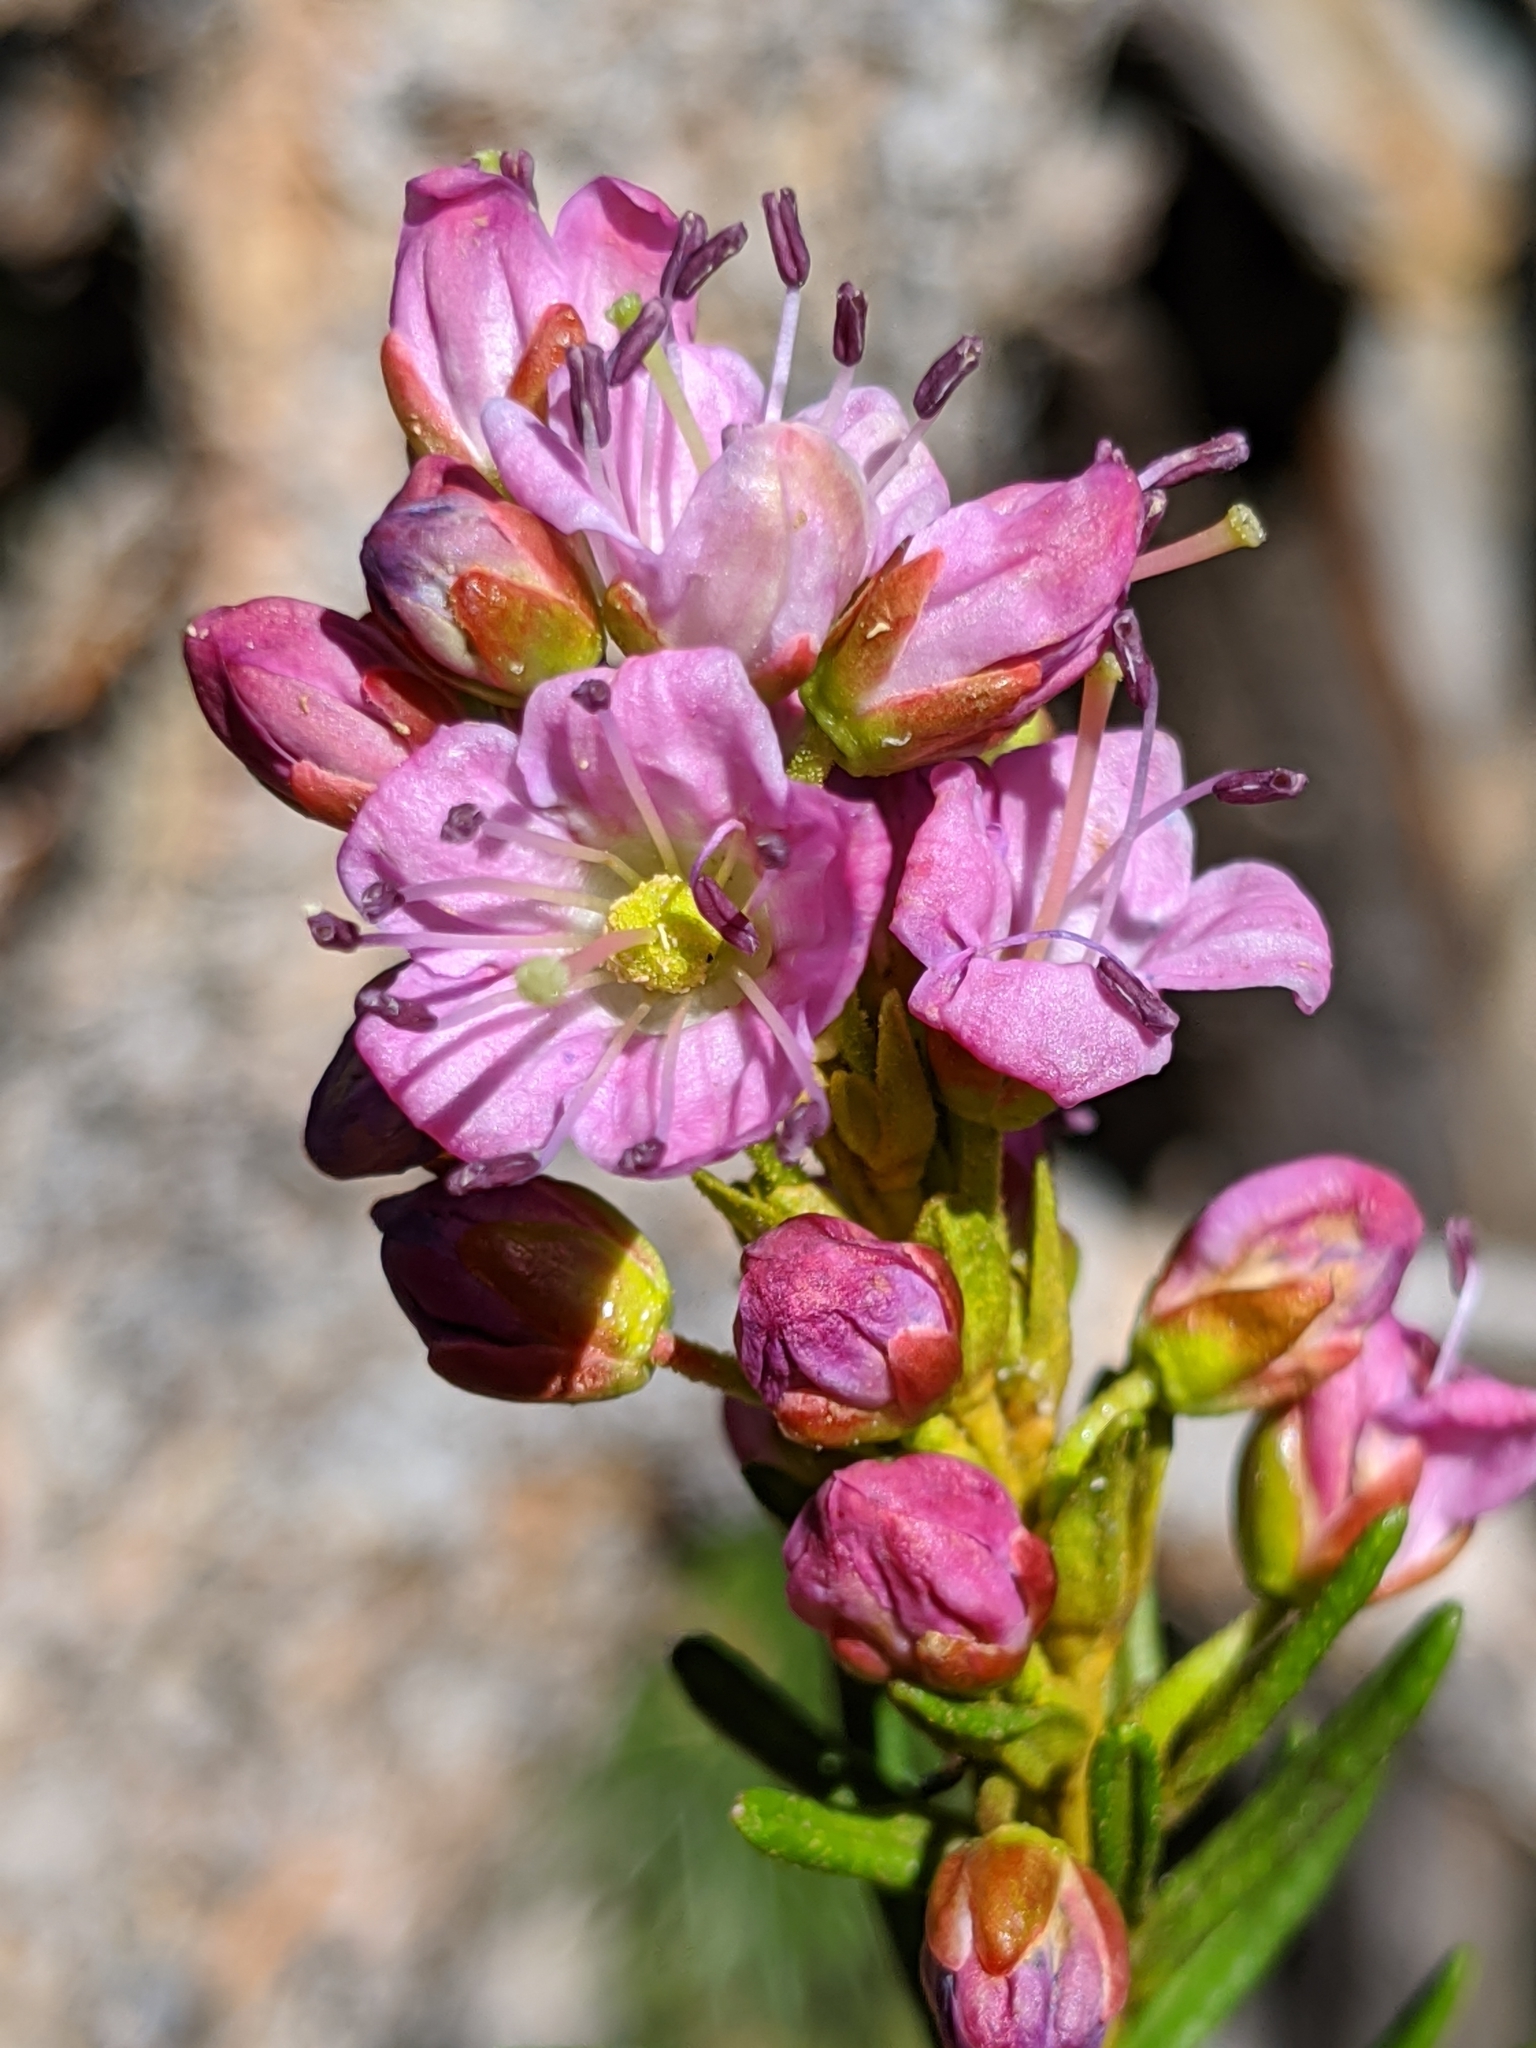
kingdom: Plantae
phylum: Tracheophyta
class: Magnoliopsida
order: Ericales
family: Ericaceae
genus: Phyllodoce
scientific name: Phyllodoce breweri
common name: Brewer's mountain-heather
